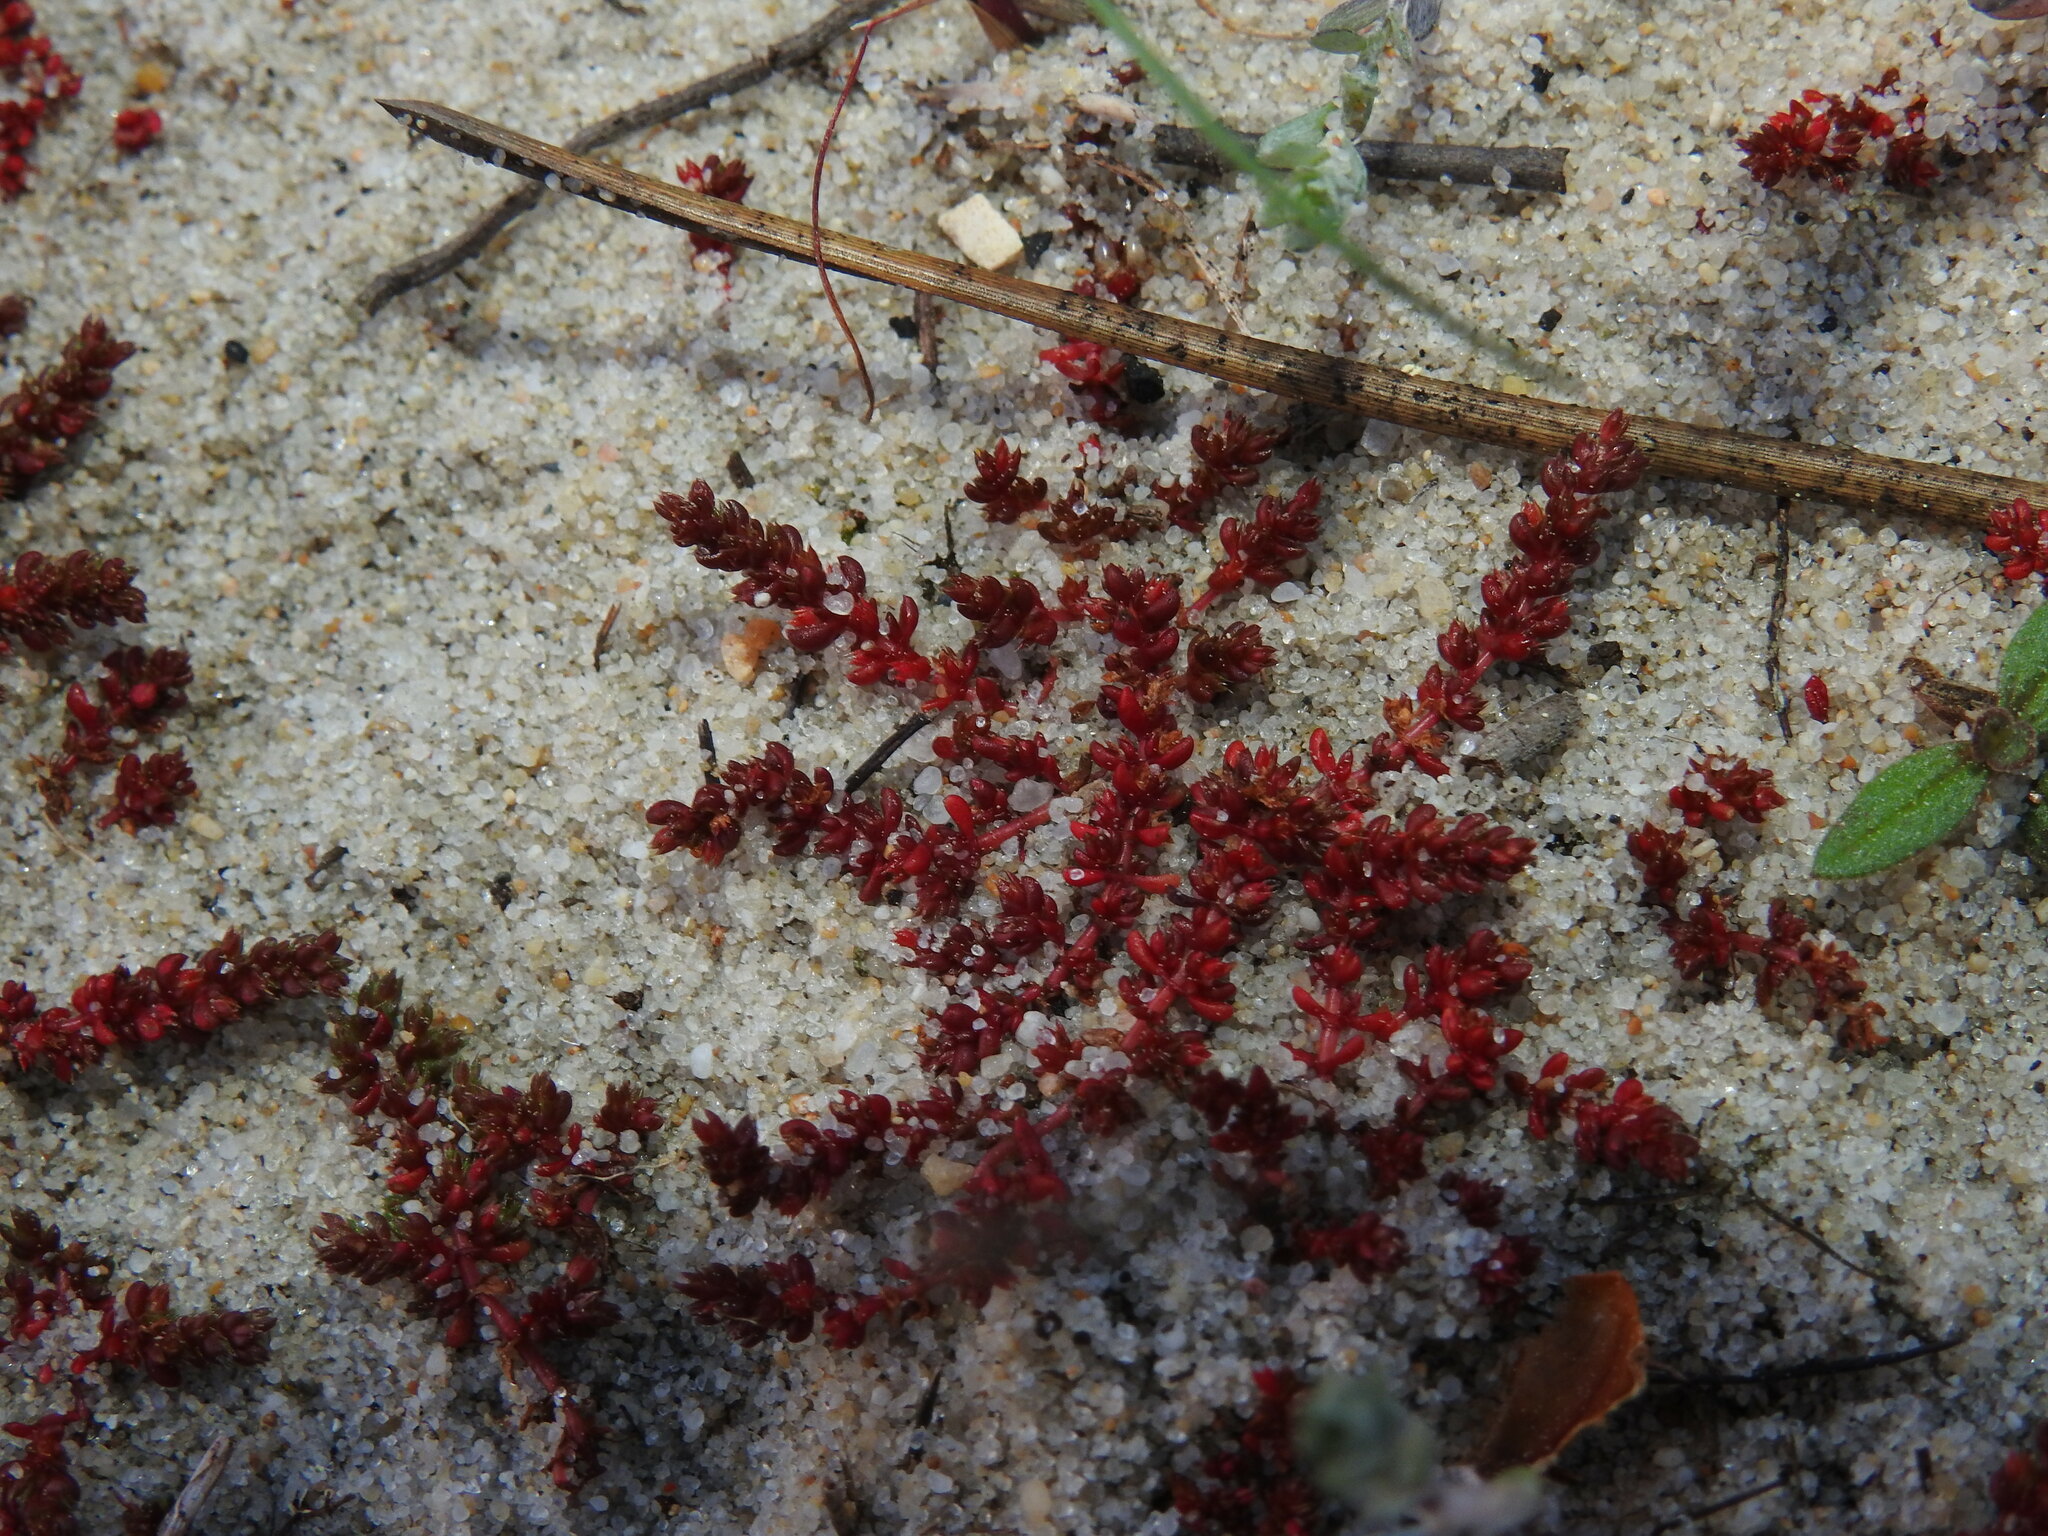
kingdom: Plantae
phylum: Tracheophyta
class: Magnoliopsida
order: Saxifragales
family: Crassulaceae
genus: Crassula
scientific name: Crassula tillaea
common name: Mossy stonecrop
